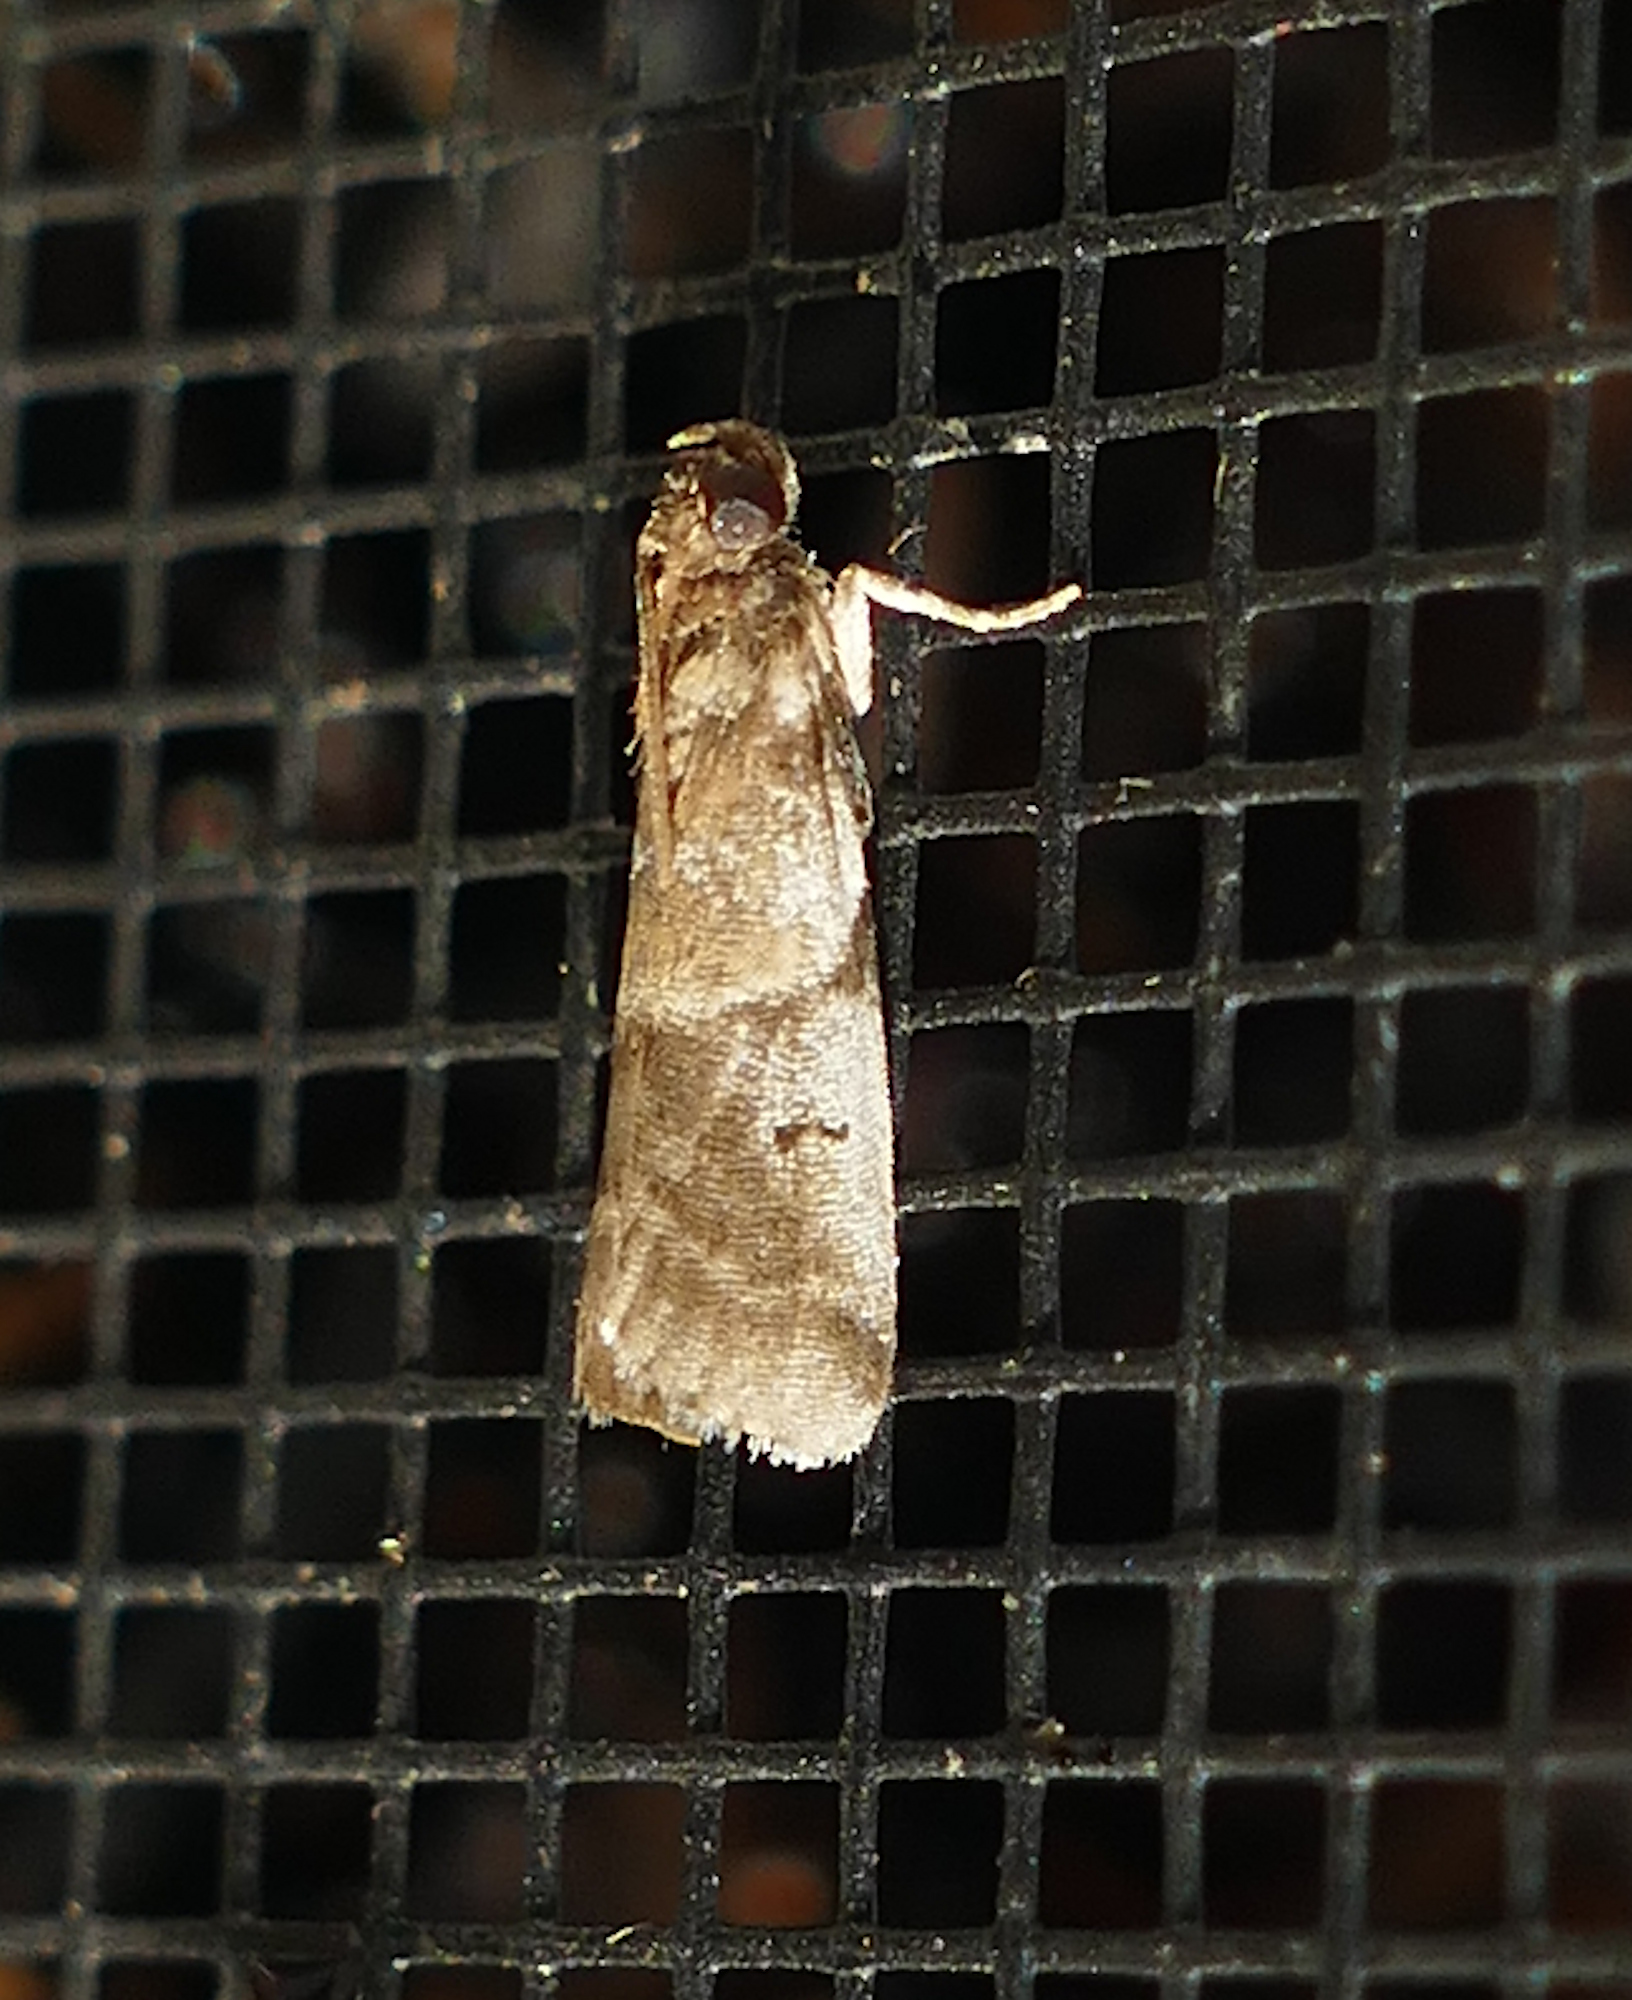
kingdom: Animalia
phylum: Arthropoda
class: Insecta
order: Lepidoptera
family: Pyralidae
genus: Laetilia
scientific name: Laetilia coccidivora
